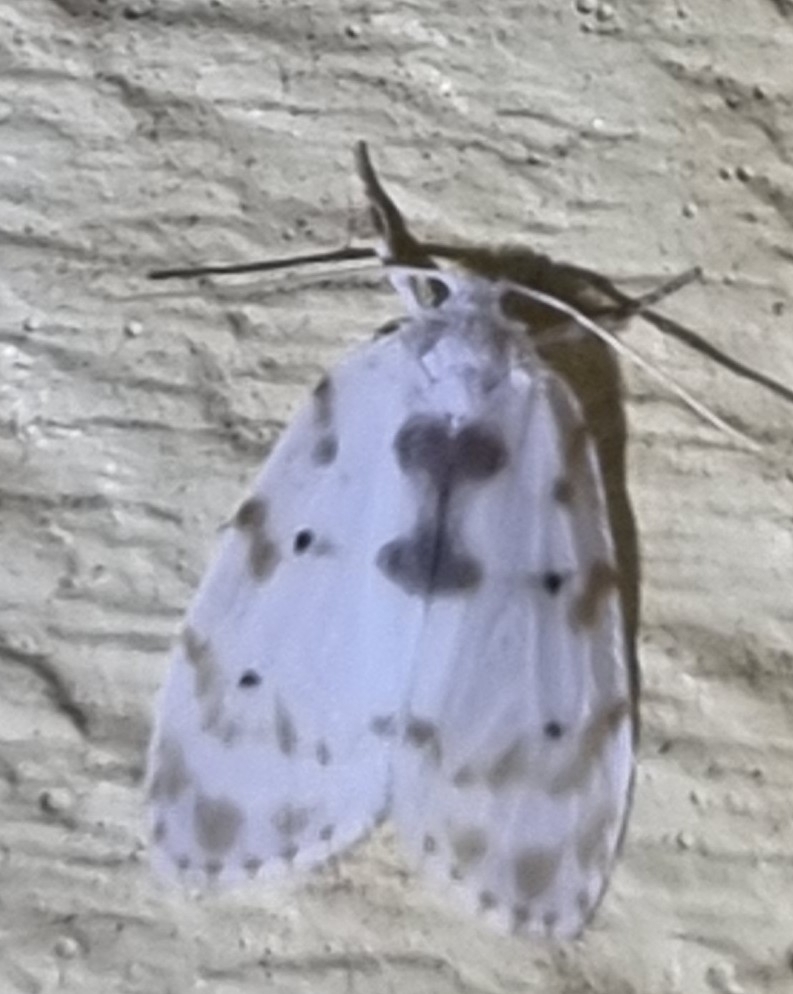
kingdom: Animalia
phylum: Arthropoda
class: Insecta
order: Lepidoptera
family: Erebidae
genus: Schistophleps
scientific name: Schistophleps albida
